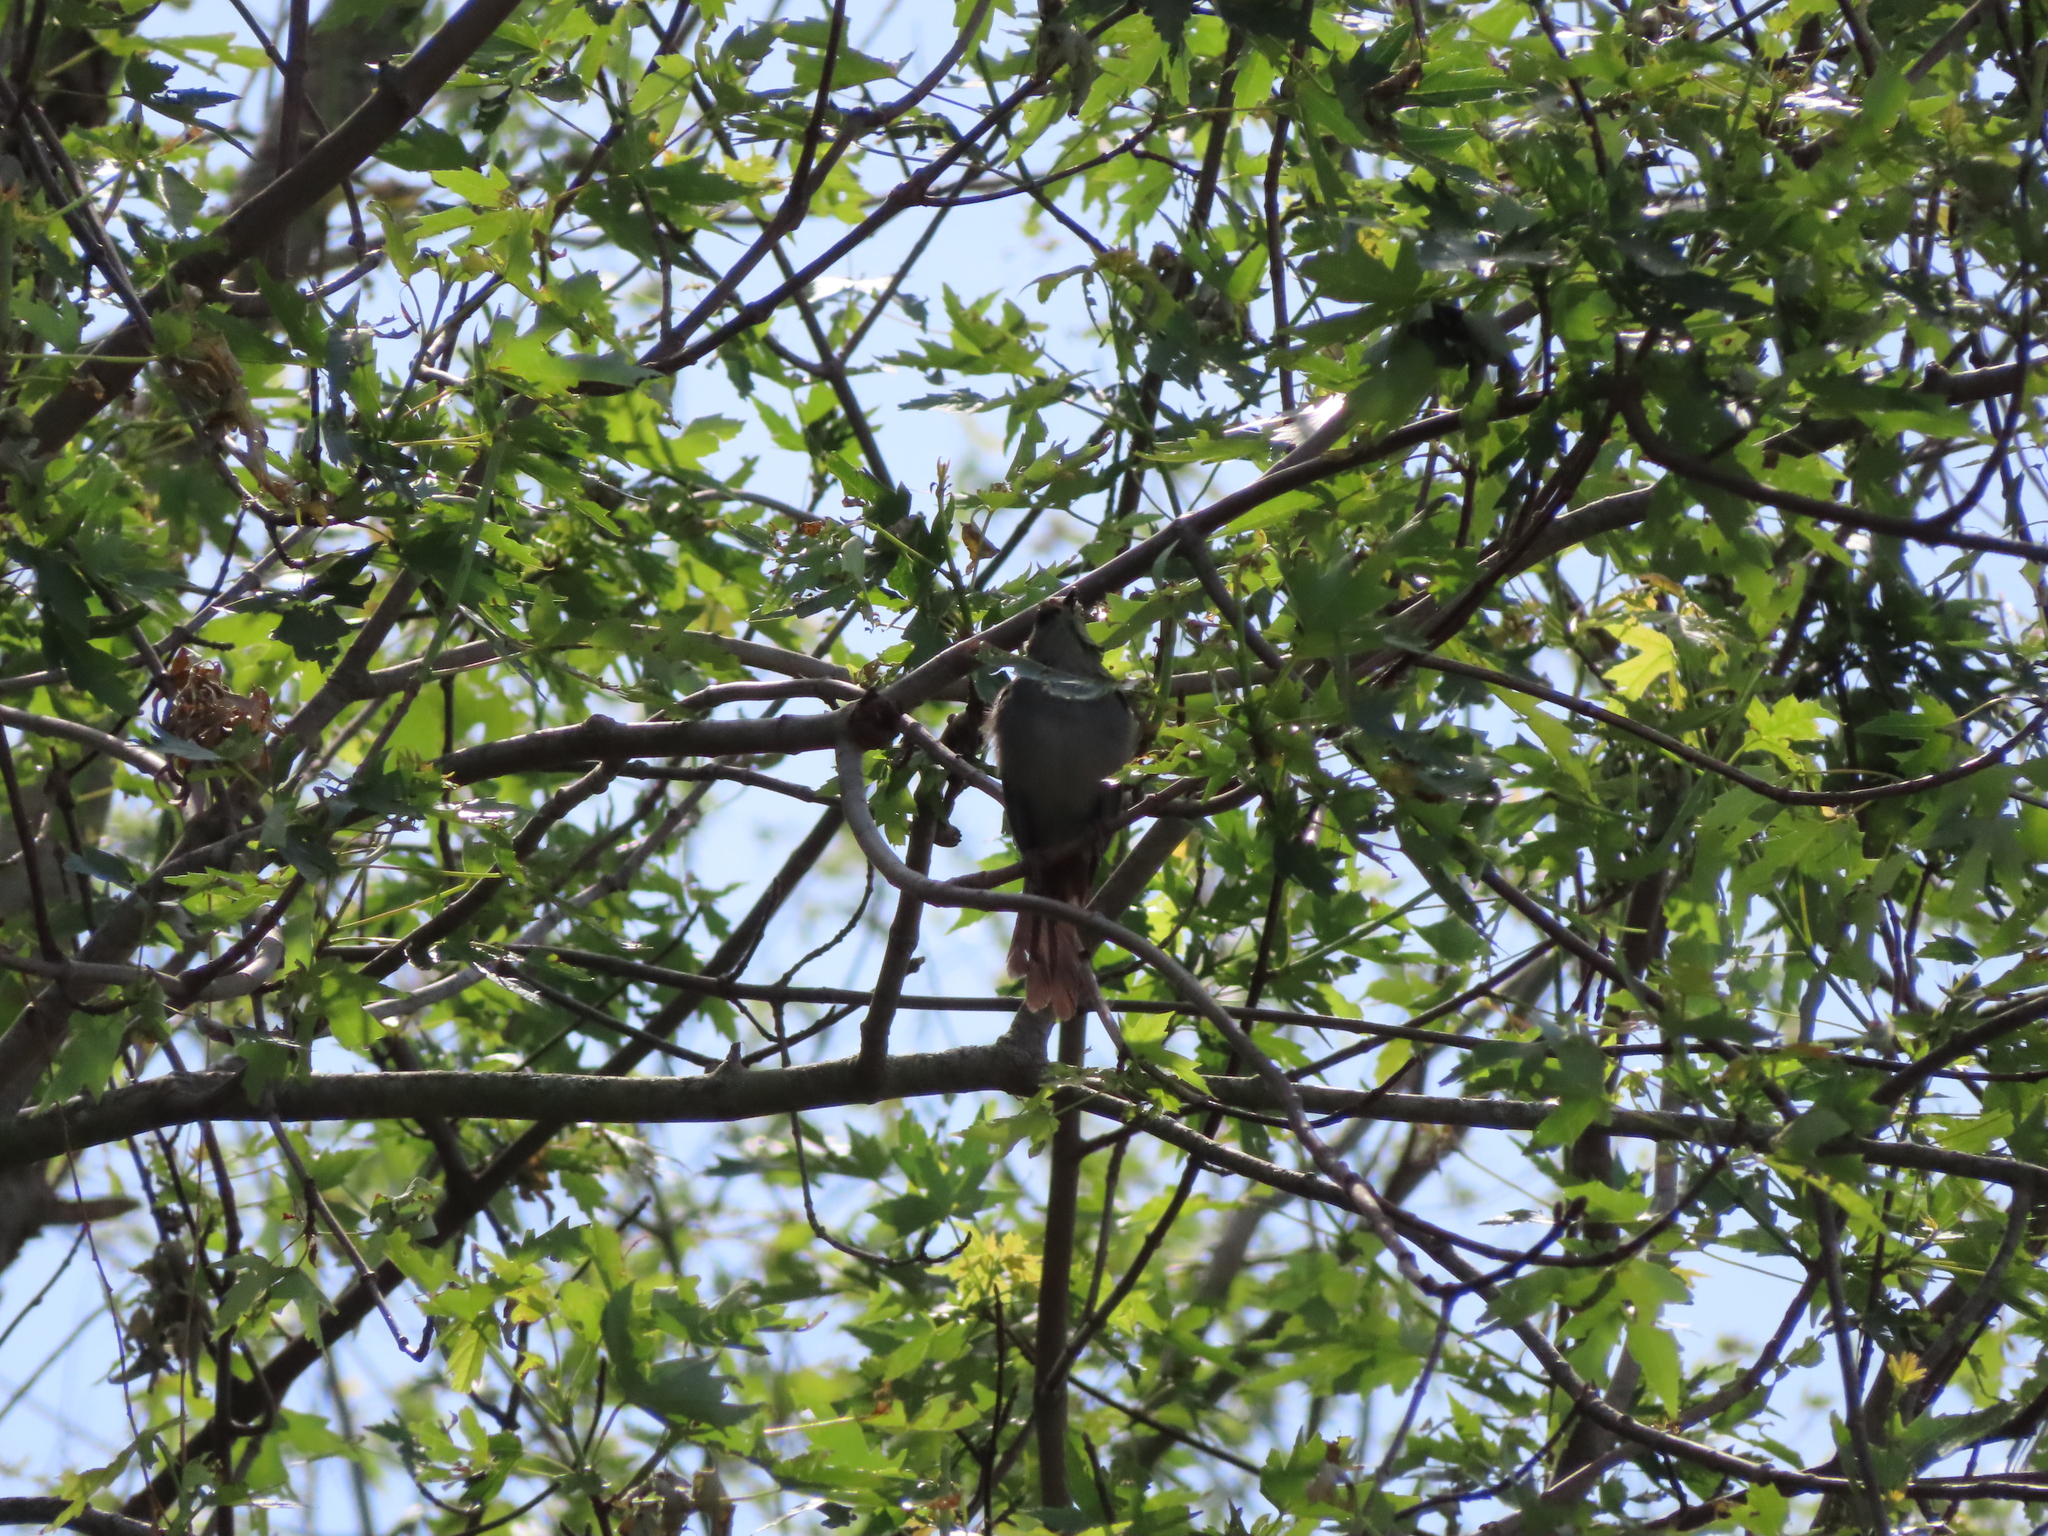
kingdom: Animalia
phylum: Chordata
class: Aves
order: Passeriformes
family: Mimidae
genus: Dumetella
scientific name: Dumetella carolinensis
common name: Gray catbird
